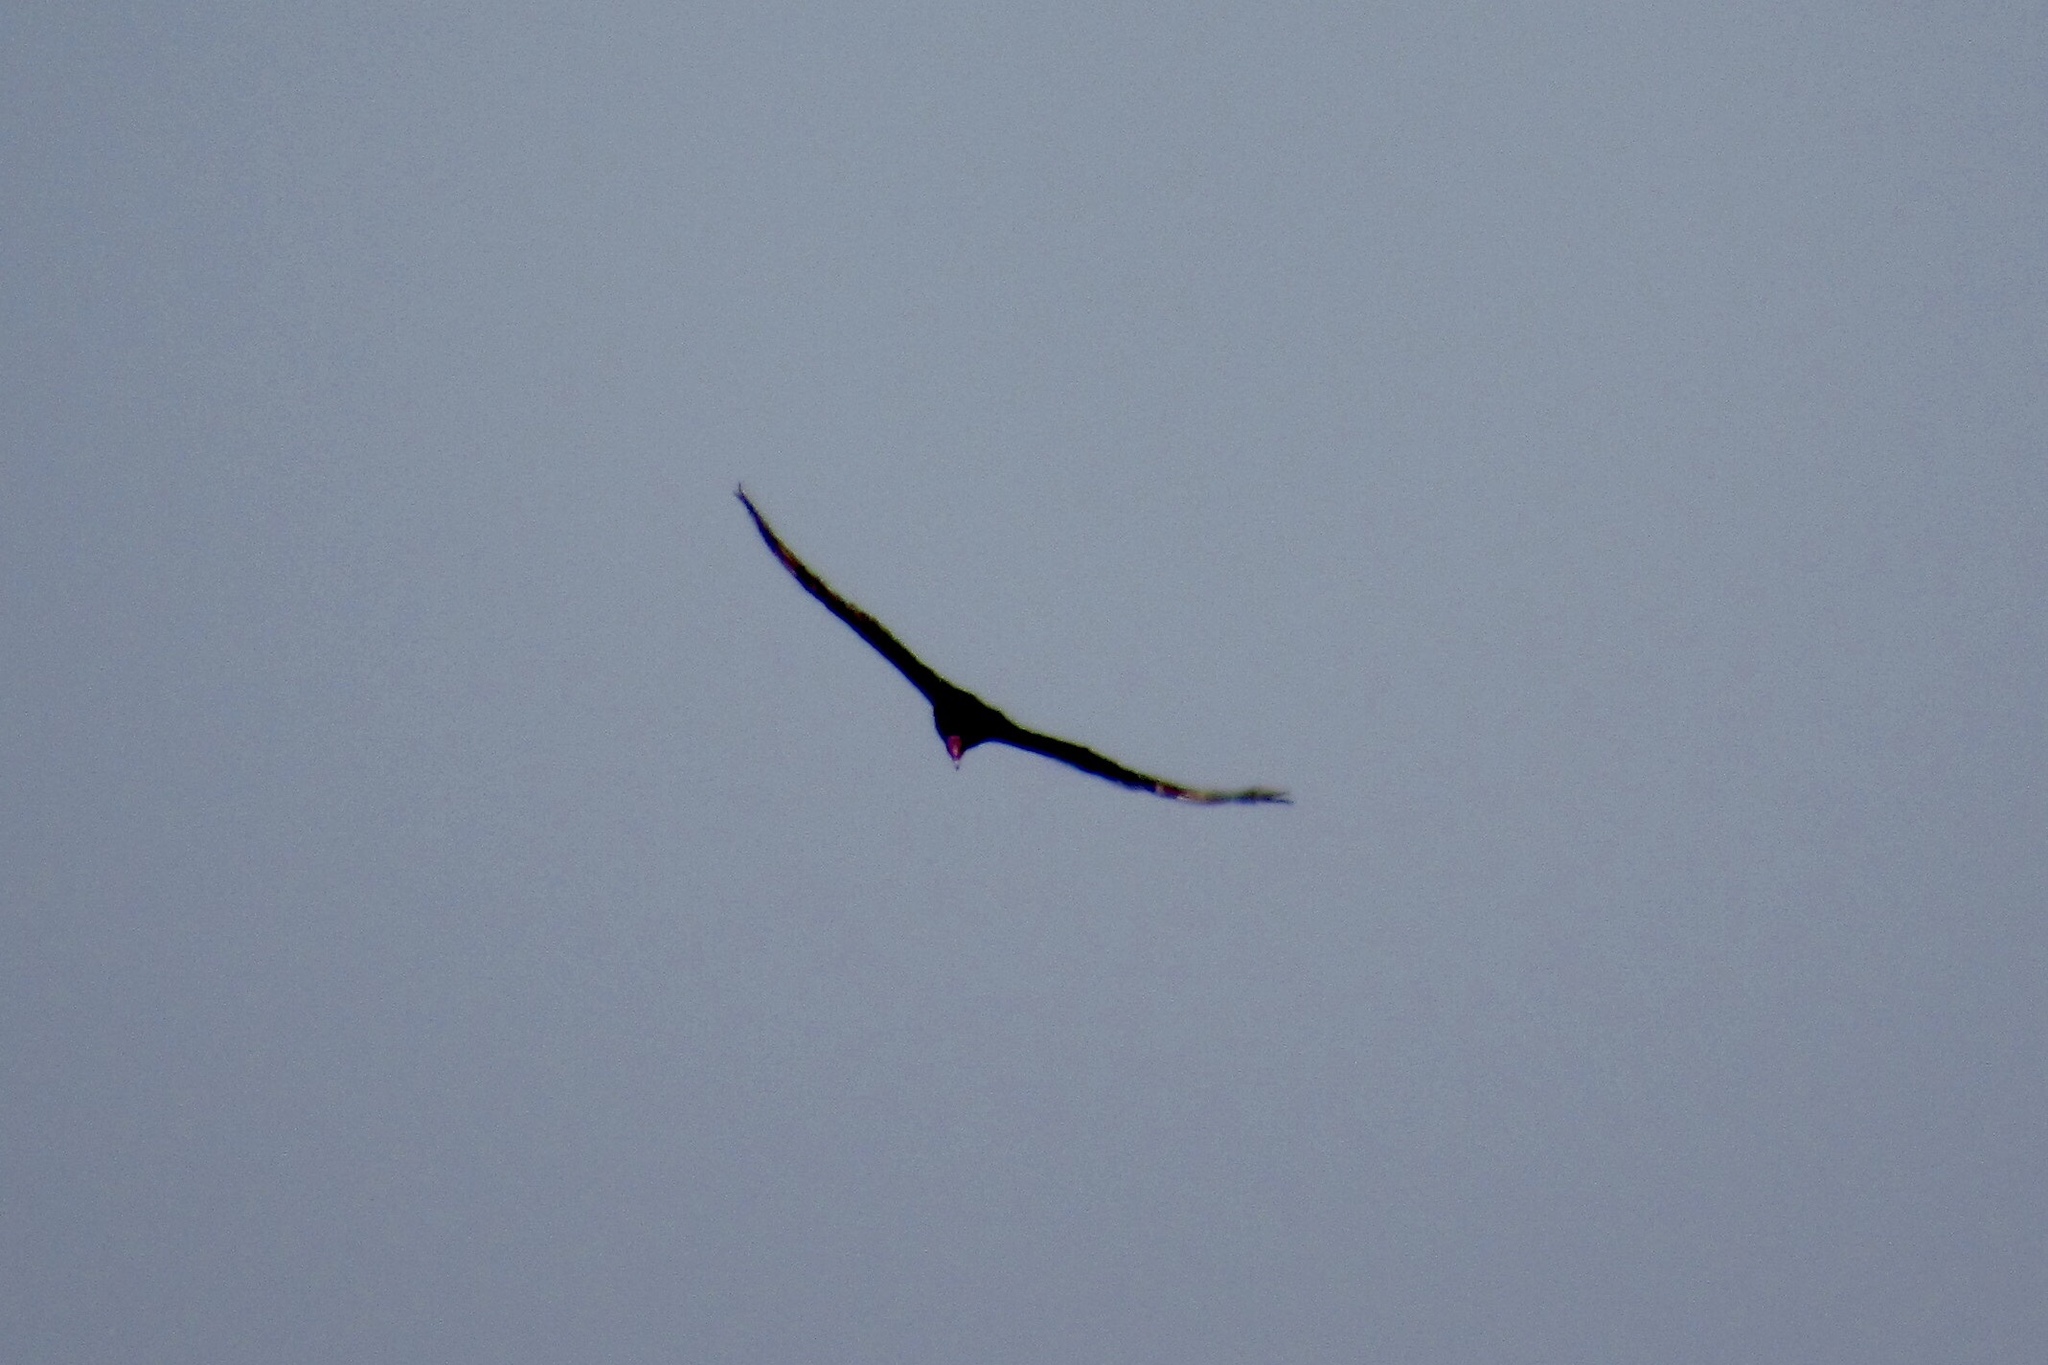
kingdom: Animalia
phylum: Chordata
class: Aves
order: Accipitriformes
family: Cathartidae
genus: Cathartes
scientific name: Cathartes aura
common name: Turkey vulture
